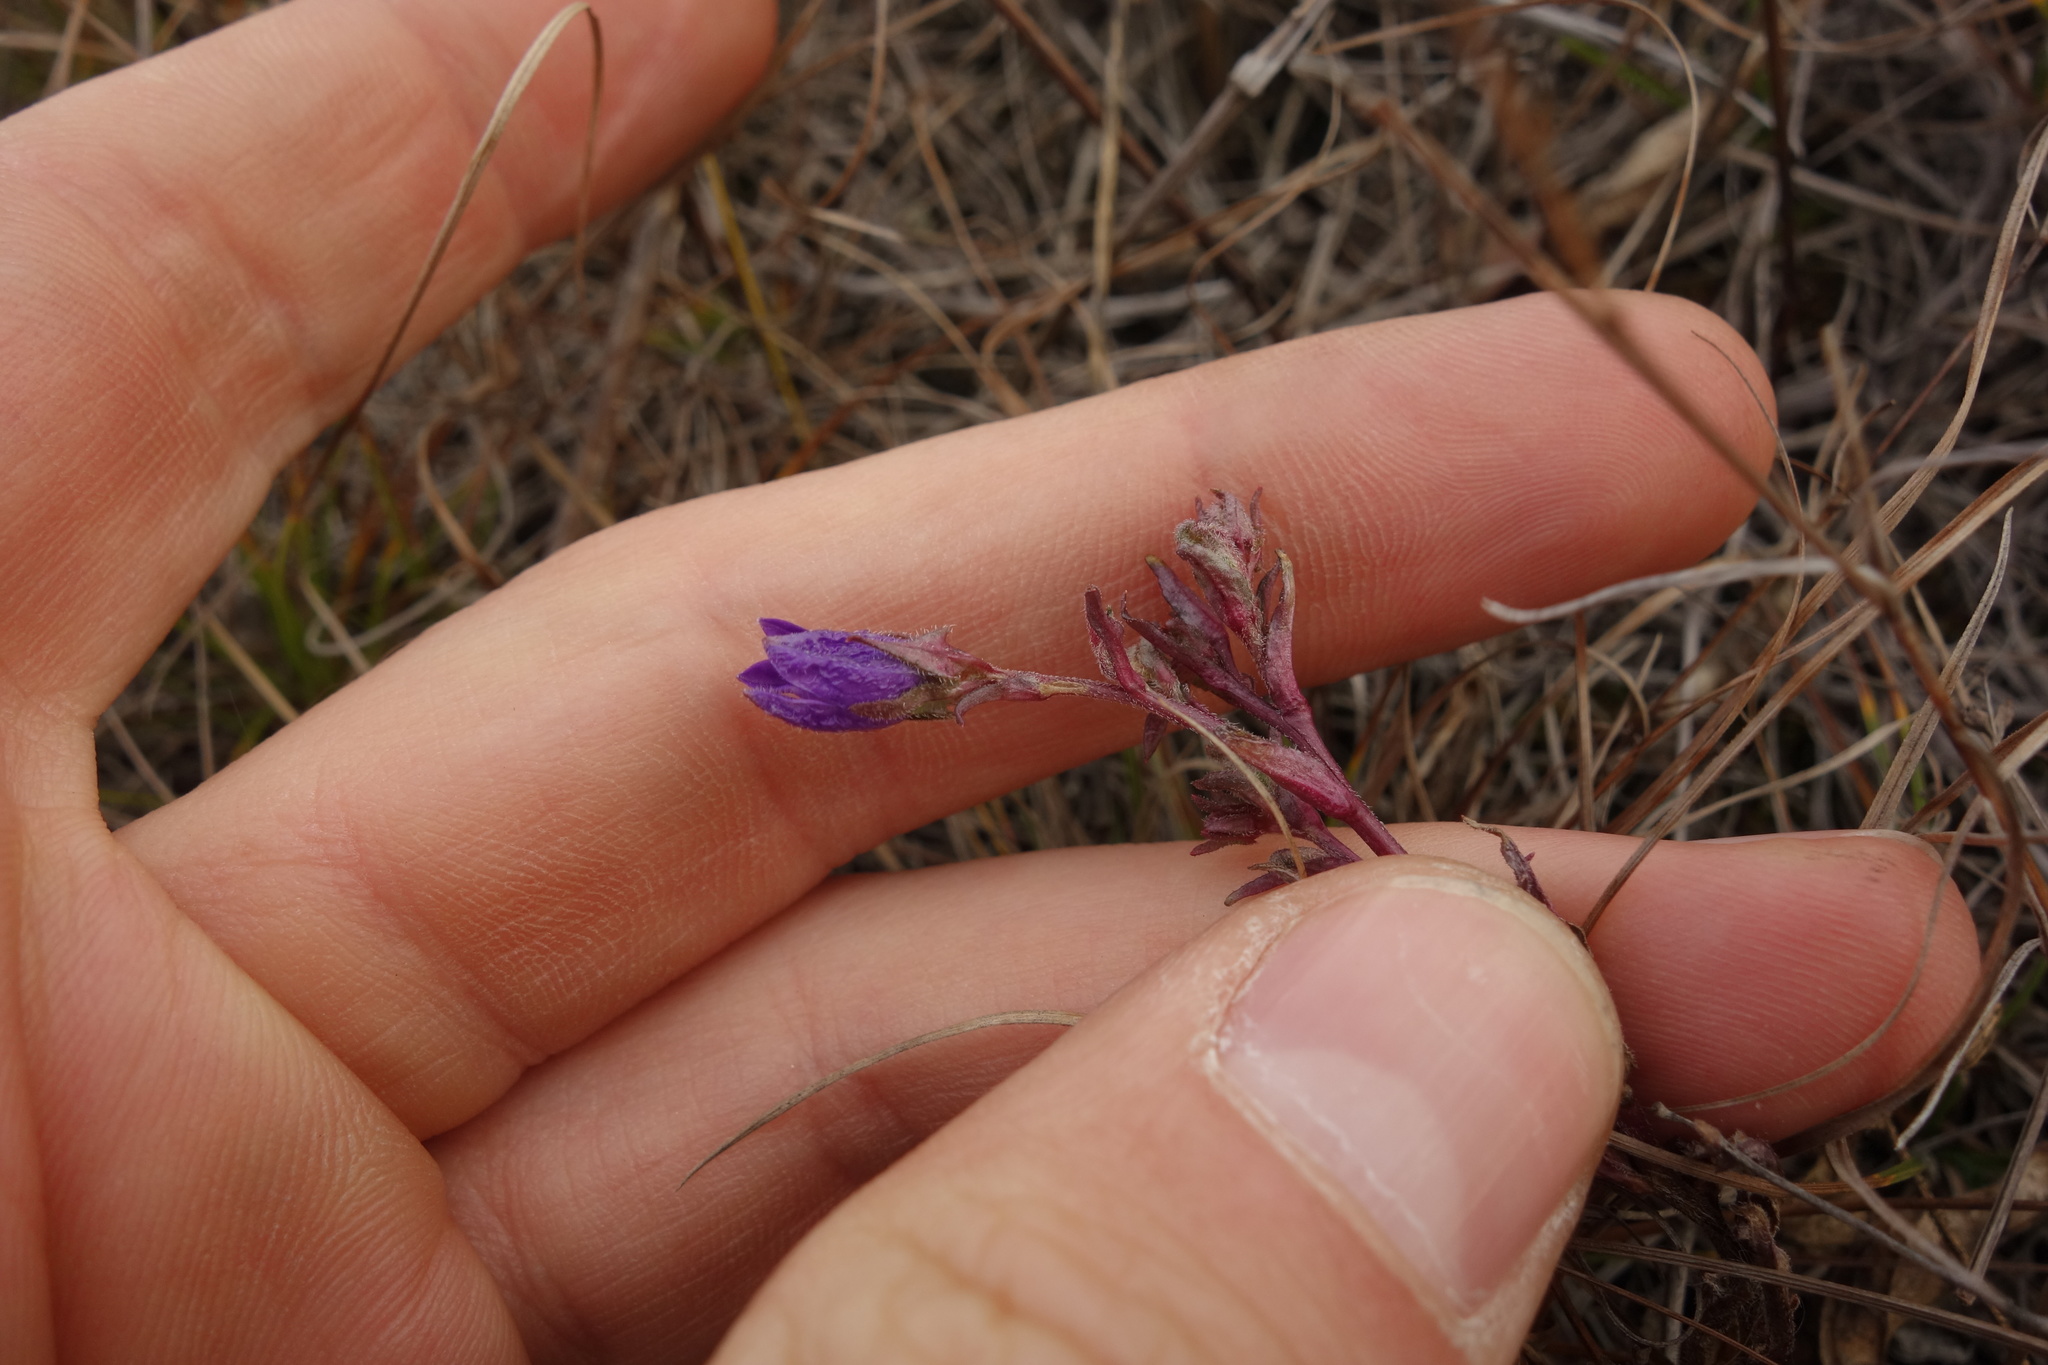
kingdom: Plantae
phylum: Tracheophyta
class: Magnoliopsida
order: Asterales
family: Campanulaceae
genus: Campanula
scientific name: Campanula sibirica
